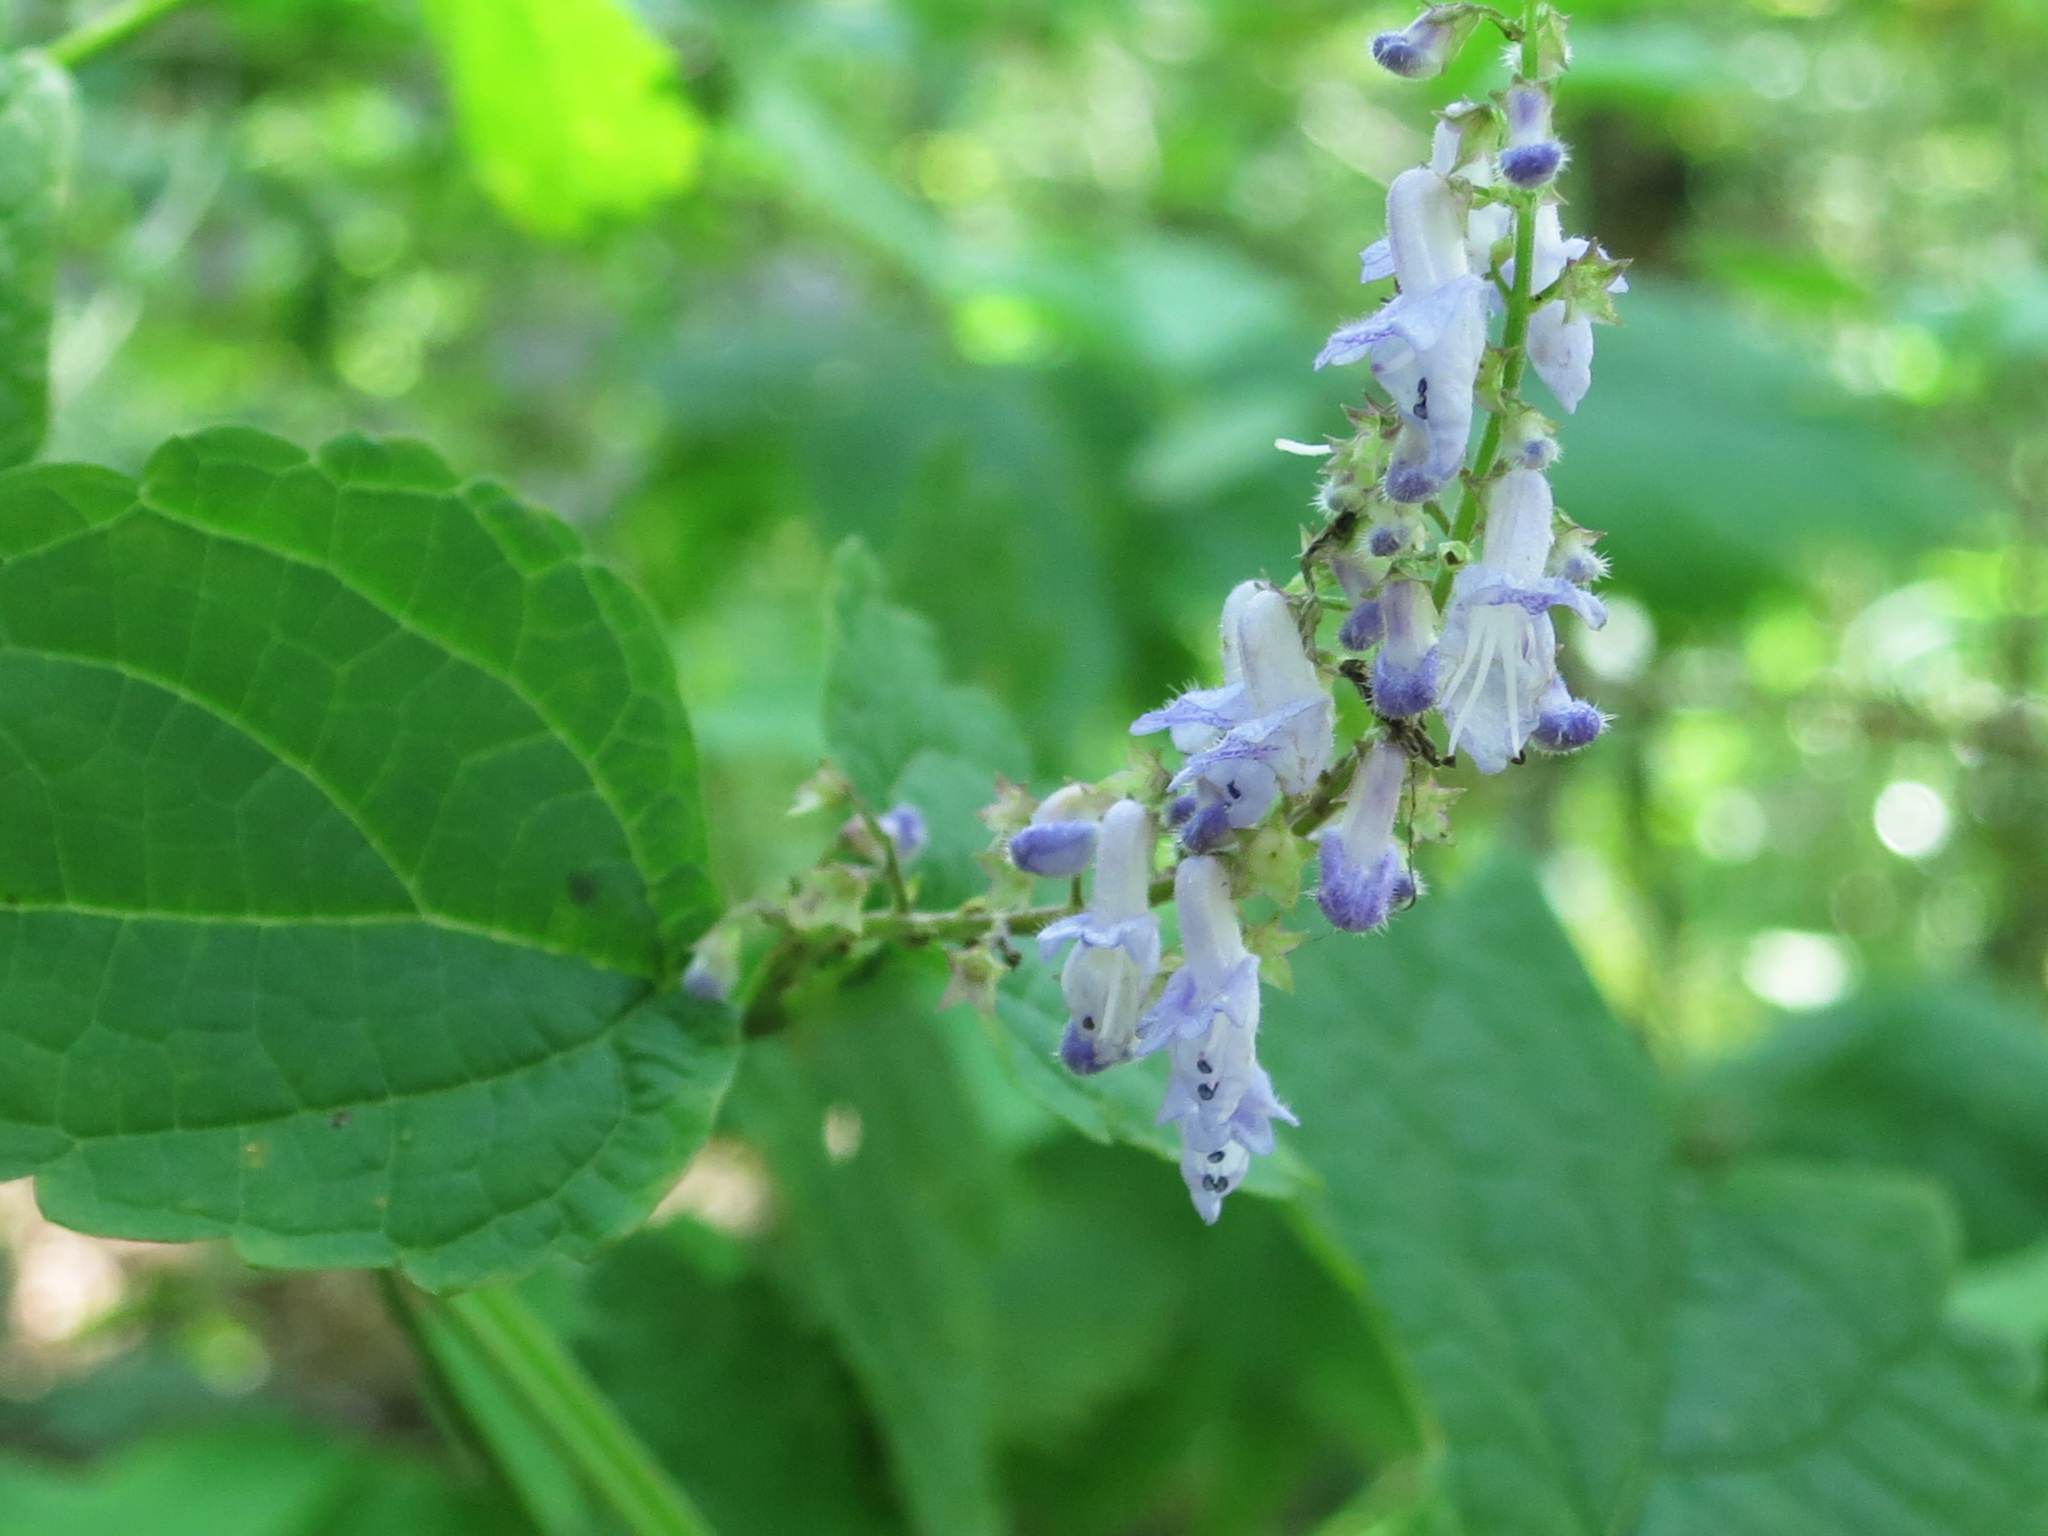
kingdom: Plantae
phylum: Tracheophyta
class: Magnoliopsida
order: Lamiales
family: Lamiaceae
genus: Isodon
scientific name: Isodon excisus
